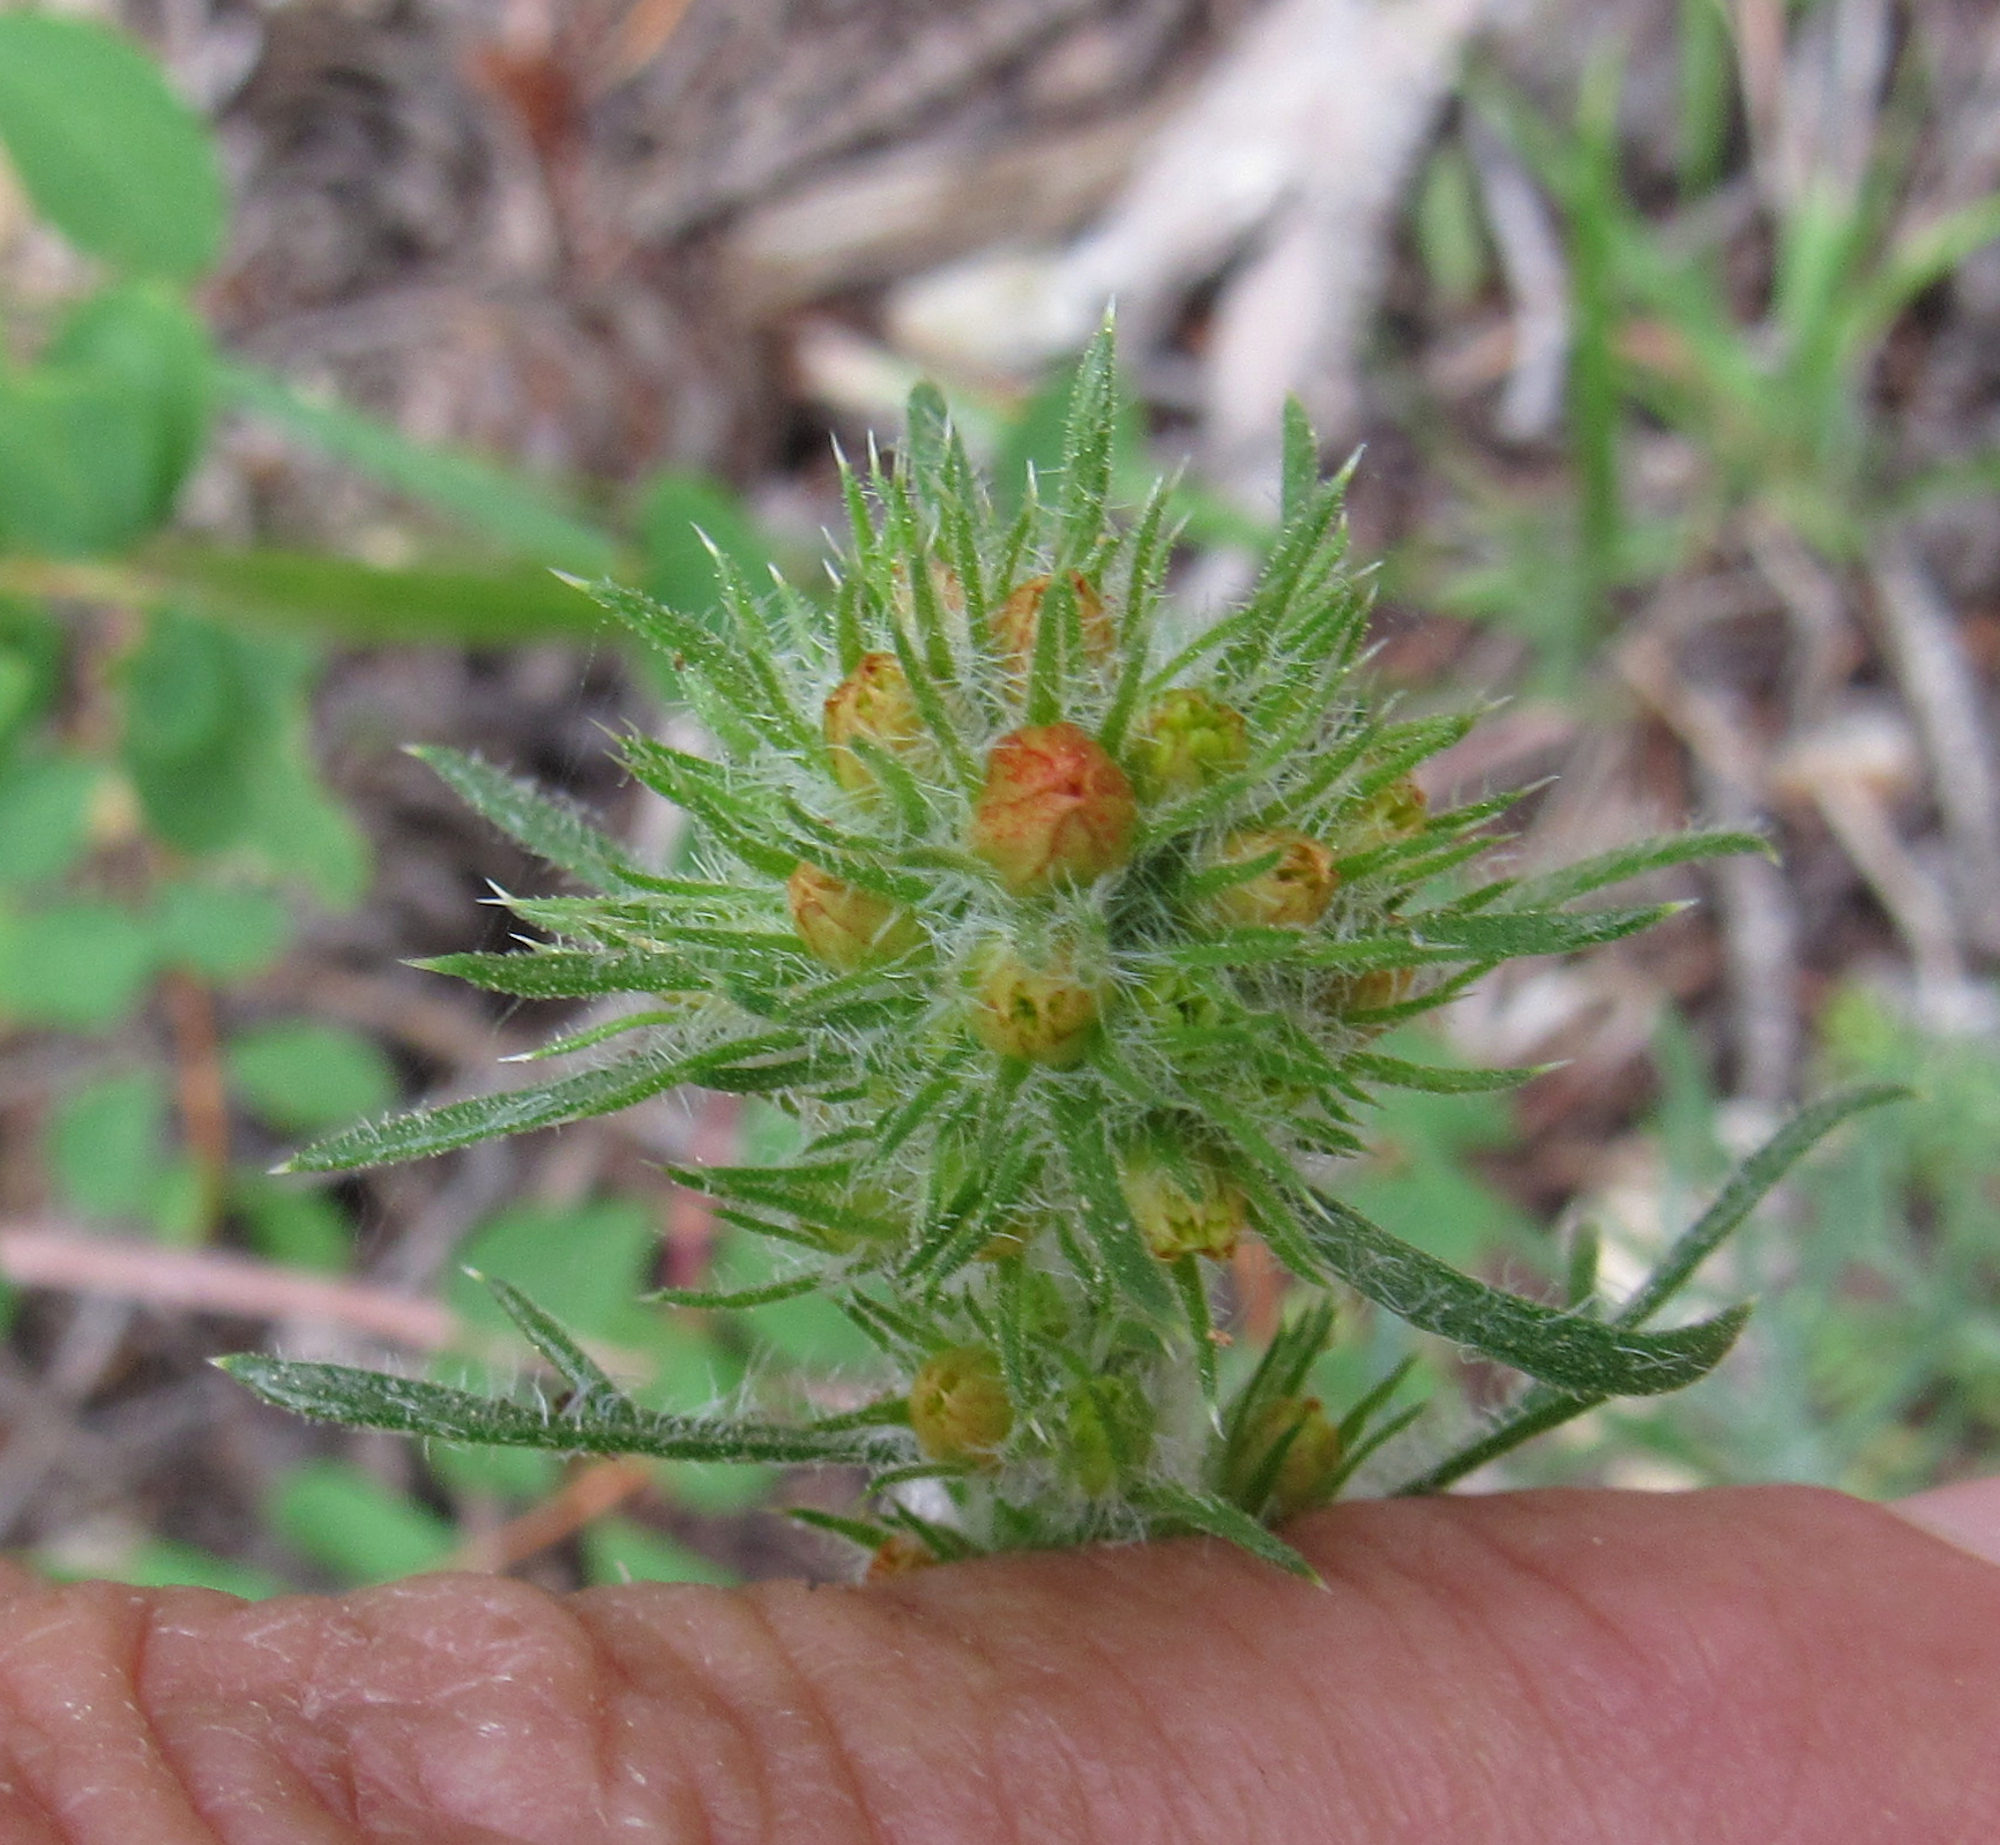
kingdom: Plantae
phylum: Tracheophyta
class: Magnoliopsida
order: Ericales
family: Polemoniaceae
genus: Ipomopsis
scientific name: Ipomopsis aggregata
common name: Scarlet gilia
